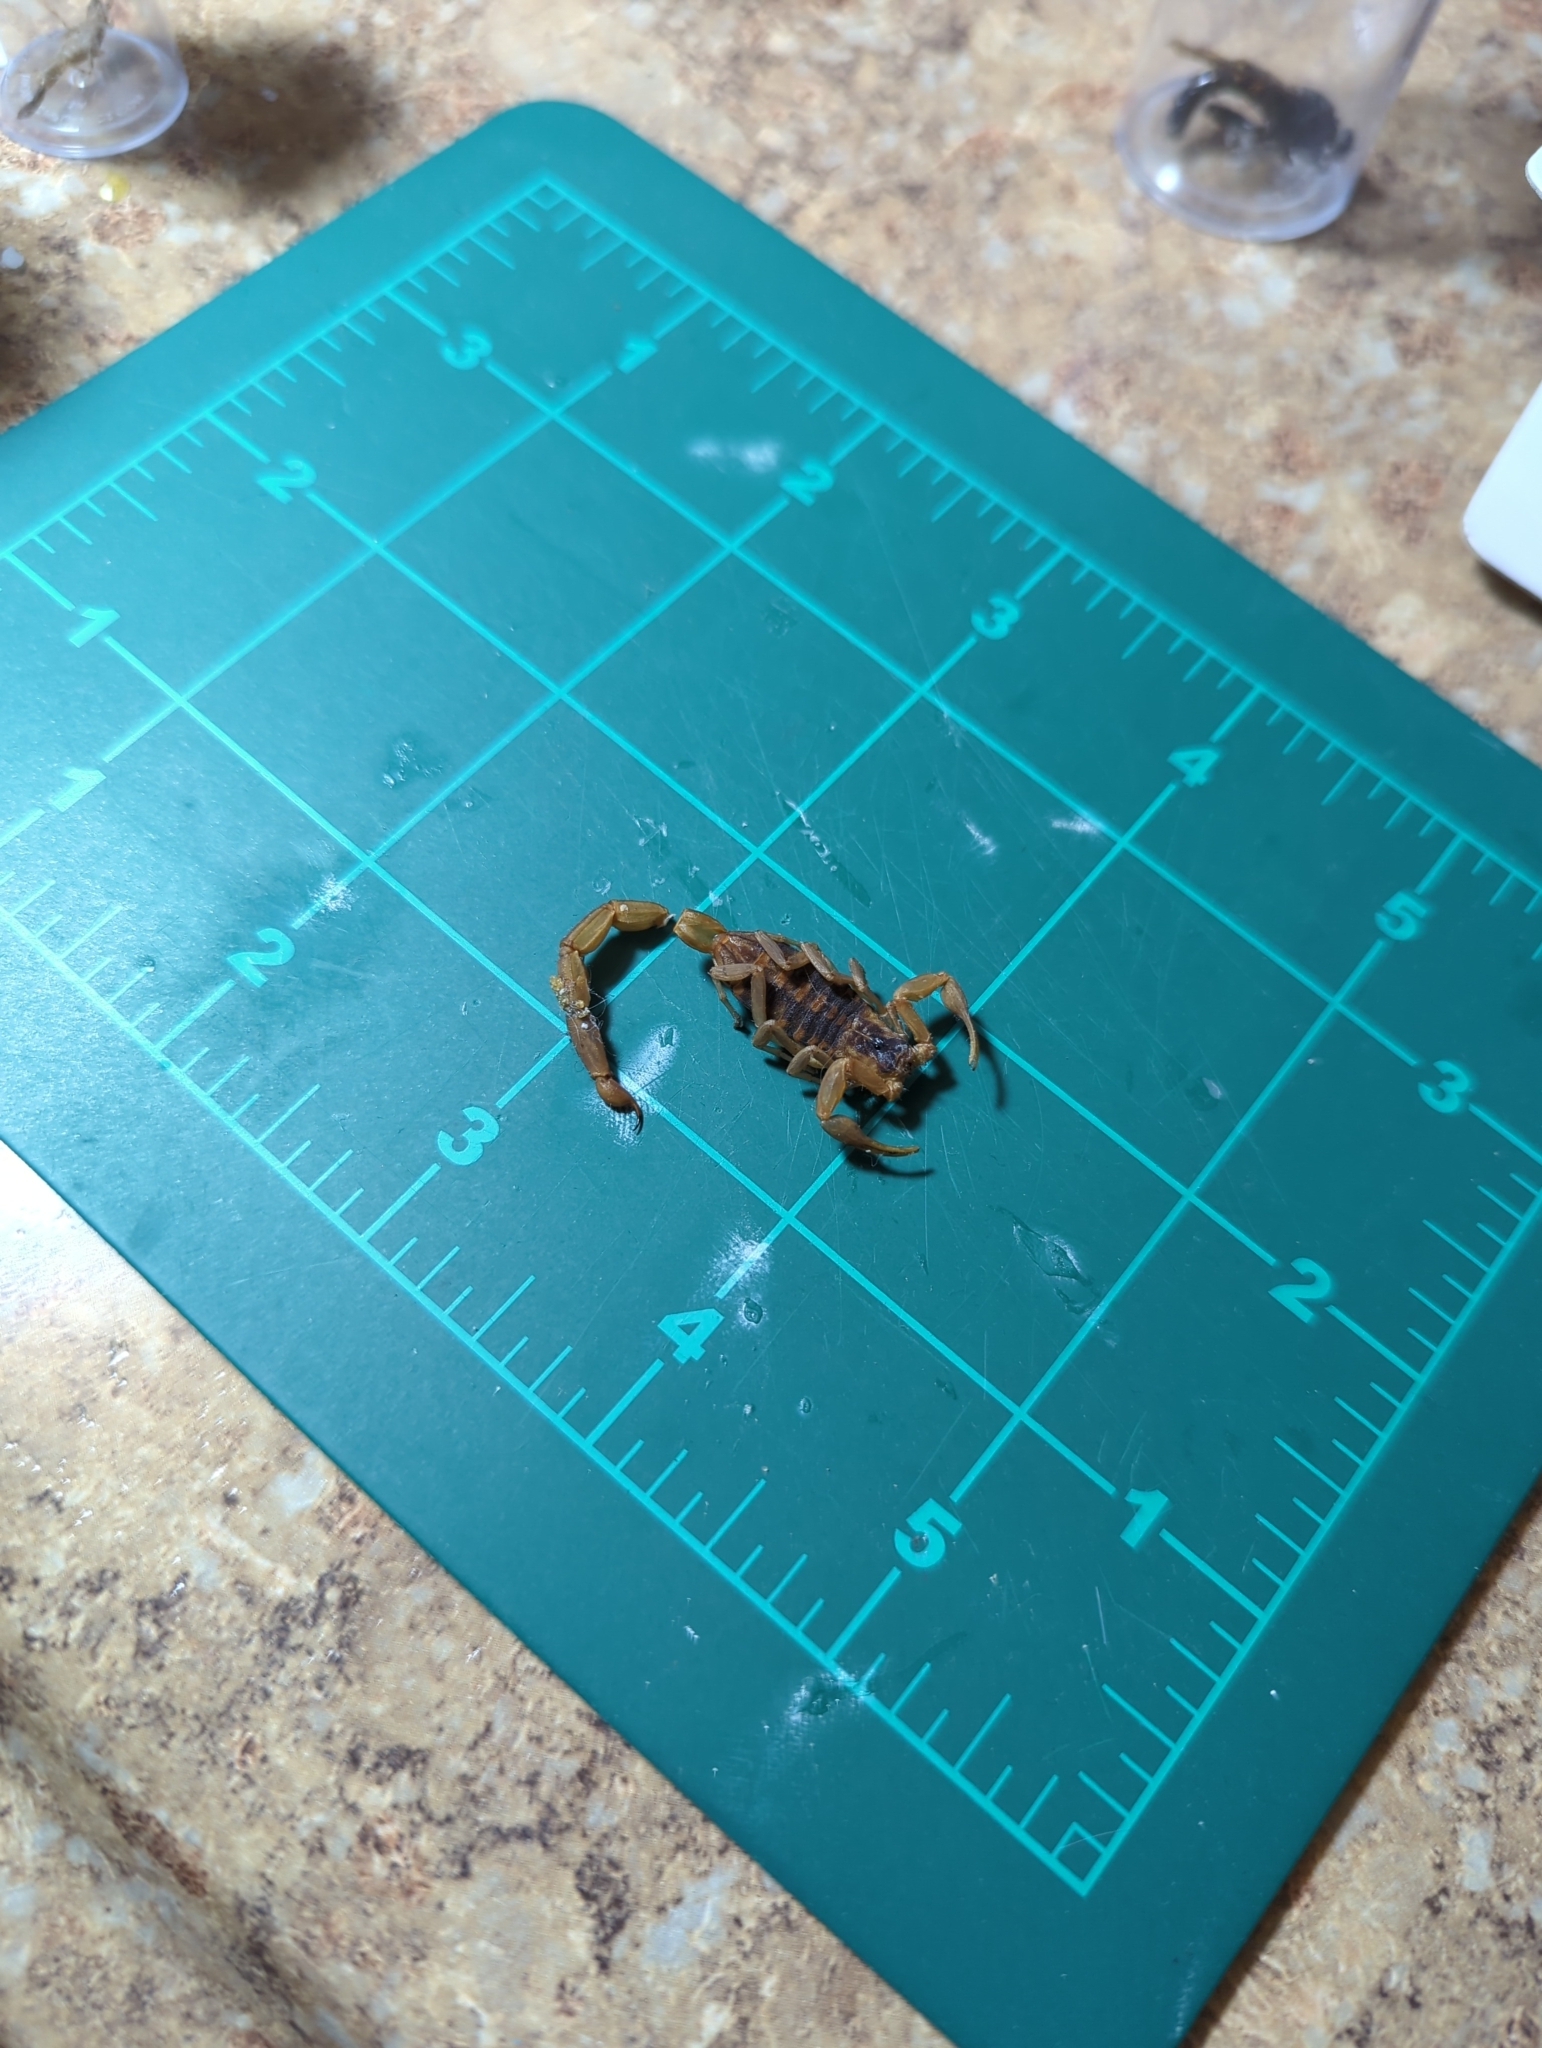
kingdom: Animalia
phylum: Arthropoda
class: Arachnida
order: Scorpiones
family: Buthidae
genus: Centruroides
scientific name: Centruroides vittatus
